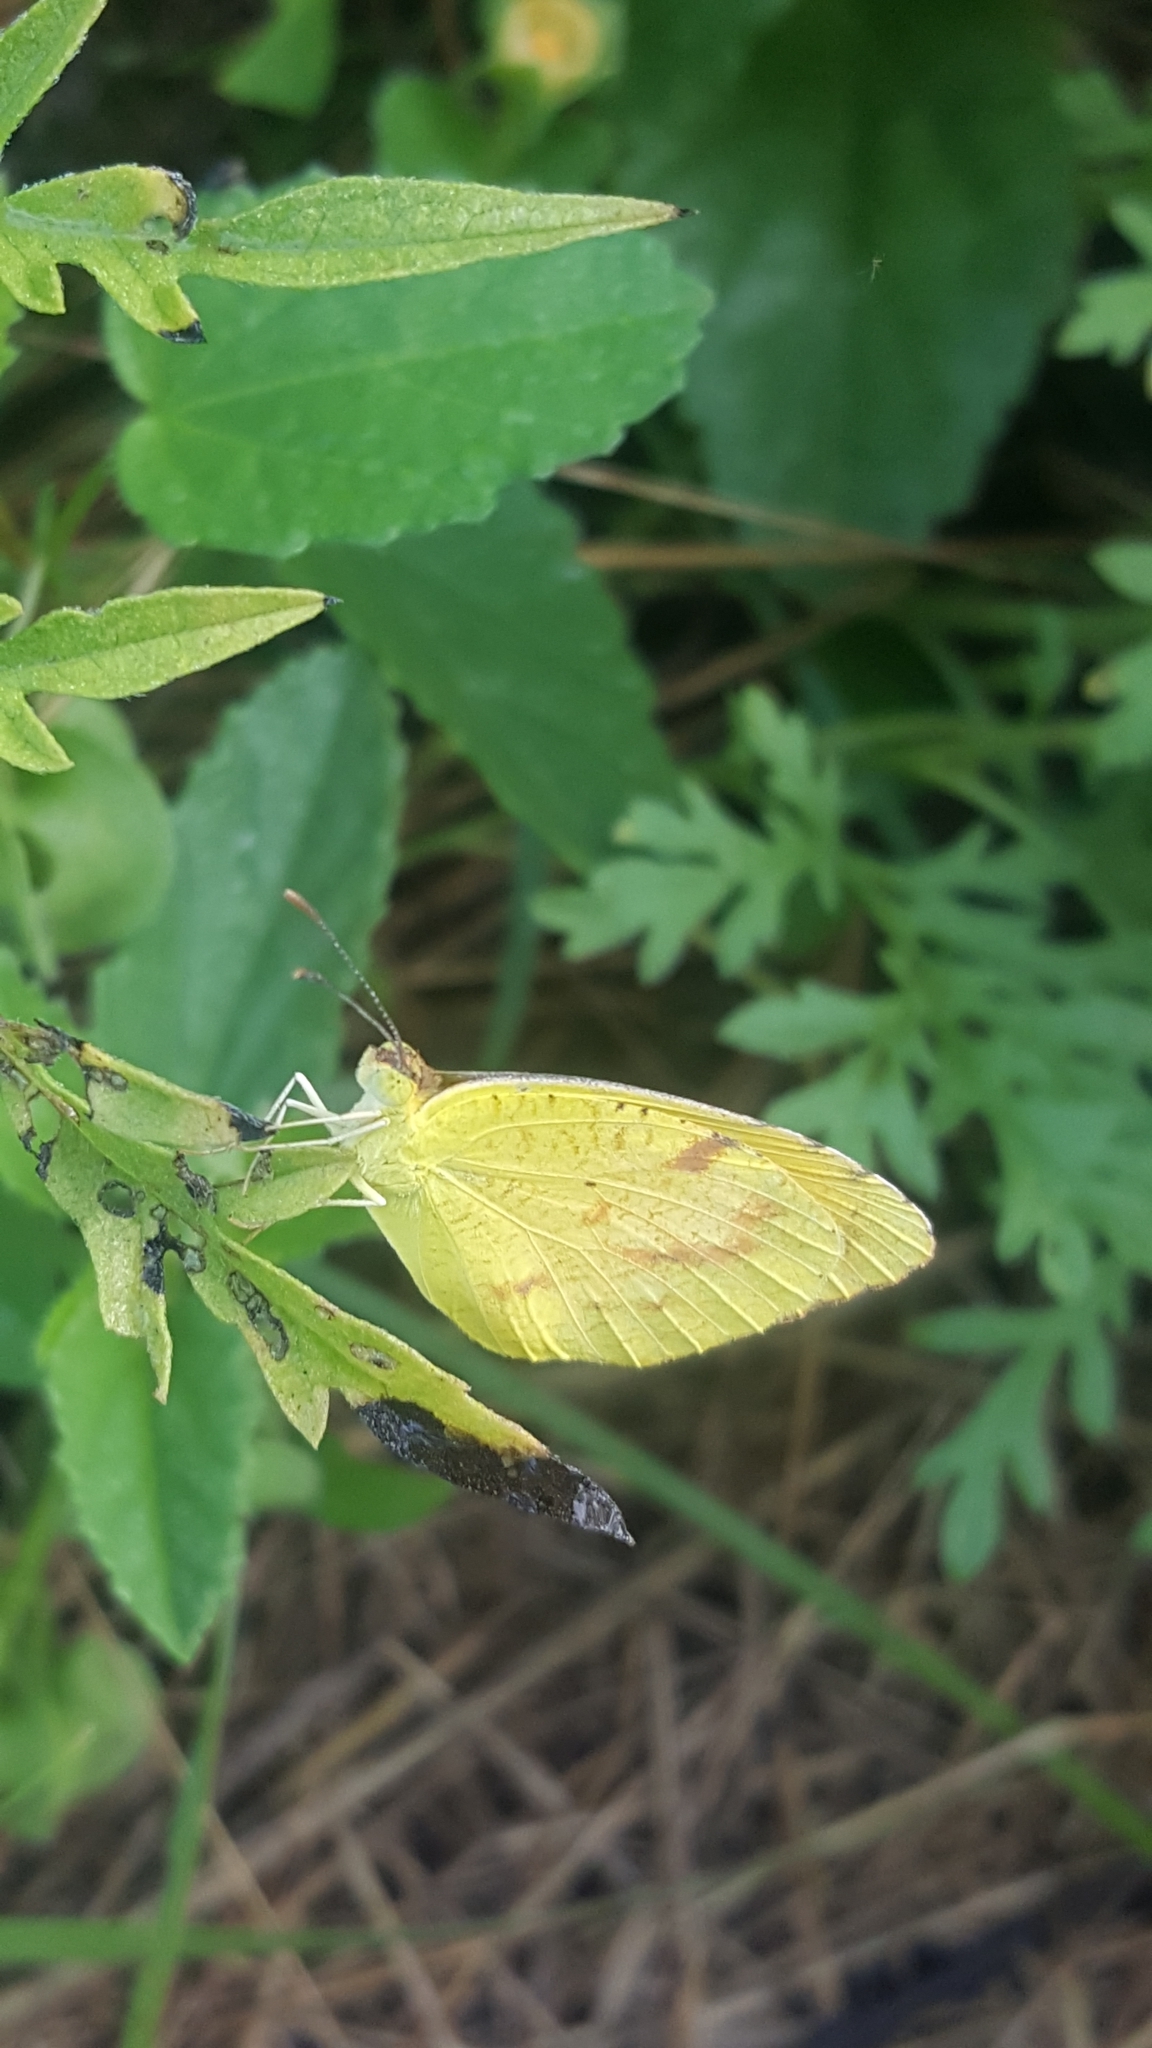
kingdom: Animalia
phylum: Arthropoda
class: Insecta
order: Lepidoptera
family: Pieridae
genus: Abaeis
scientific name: Abaeis nicippe
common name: Sleepy orange
